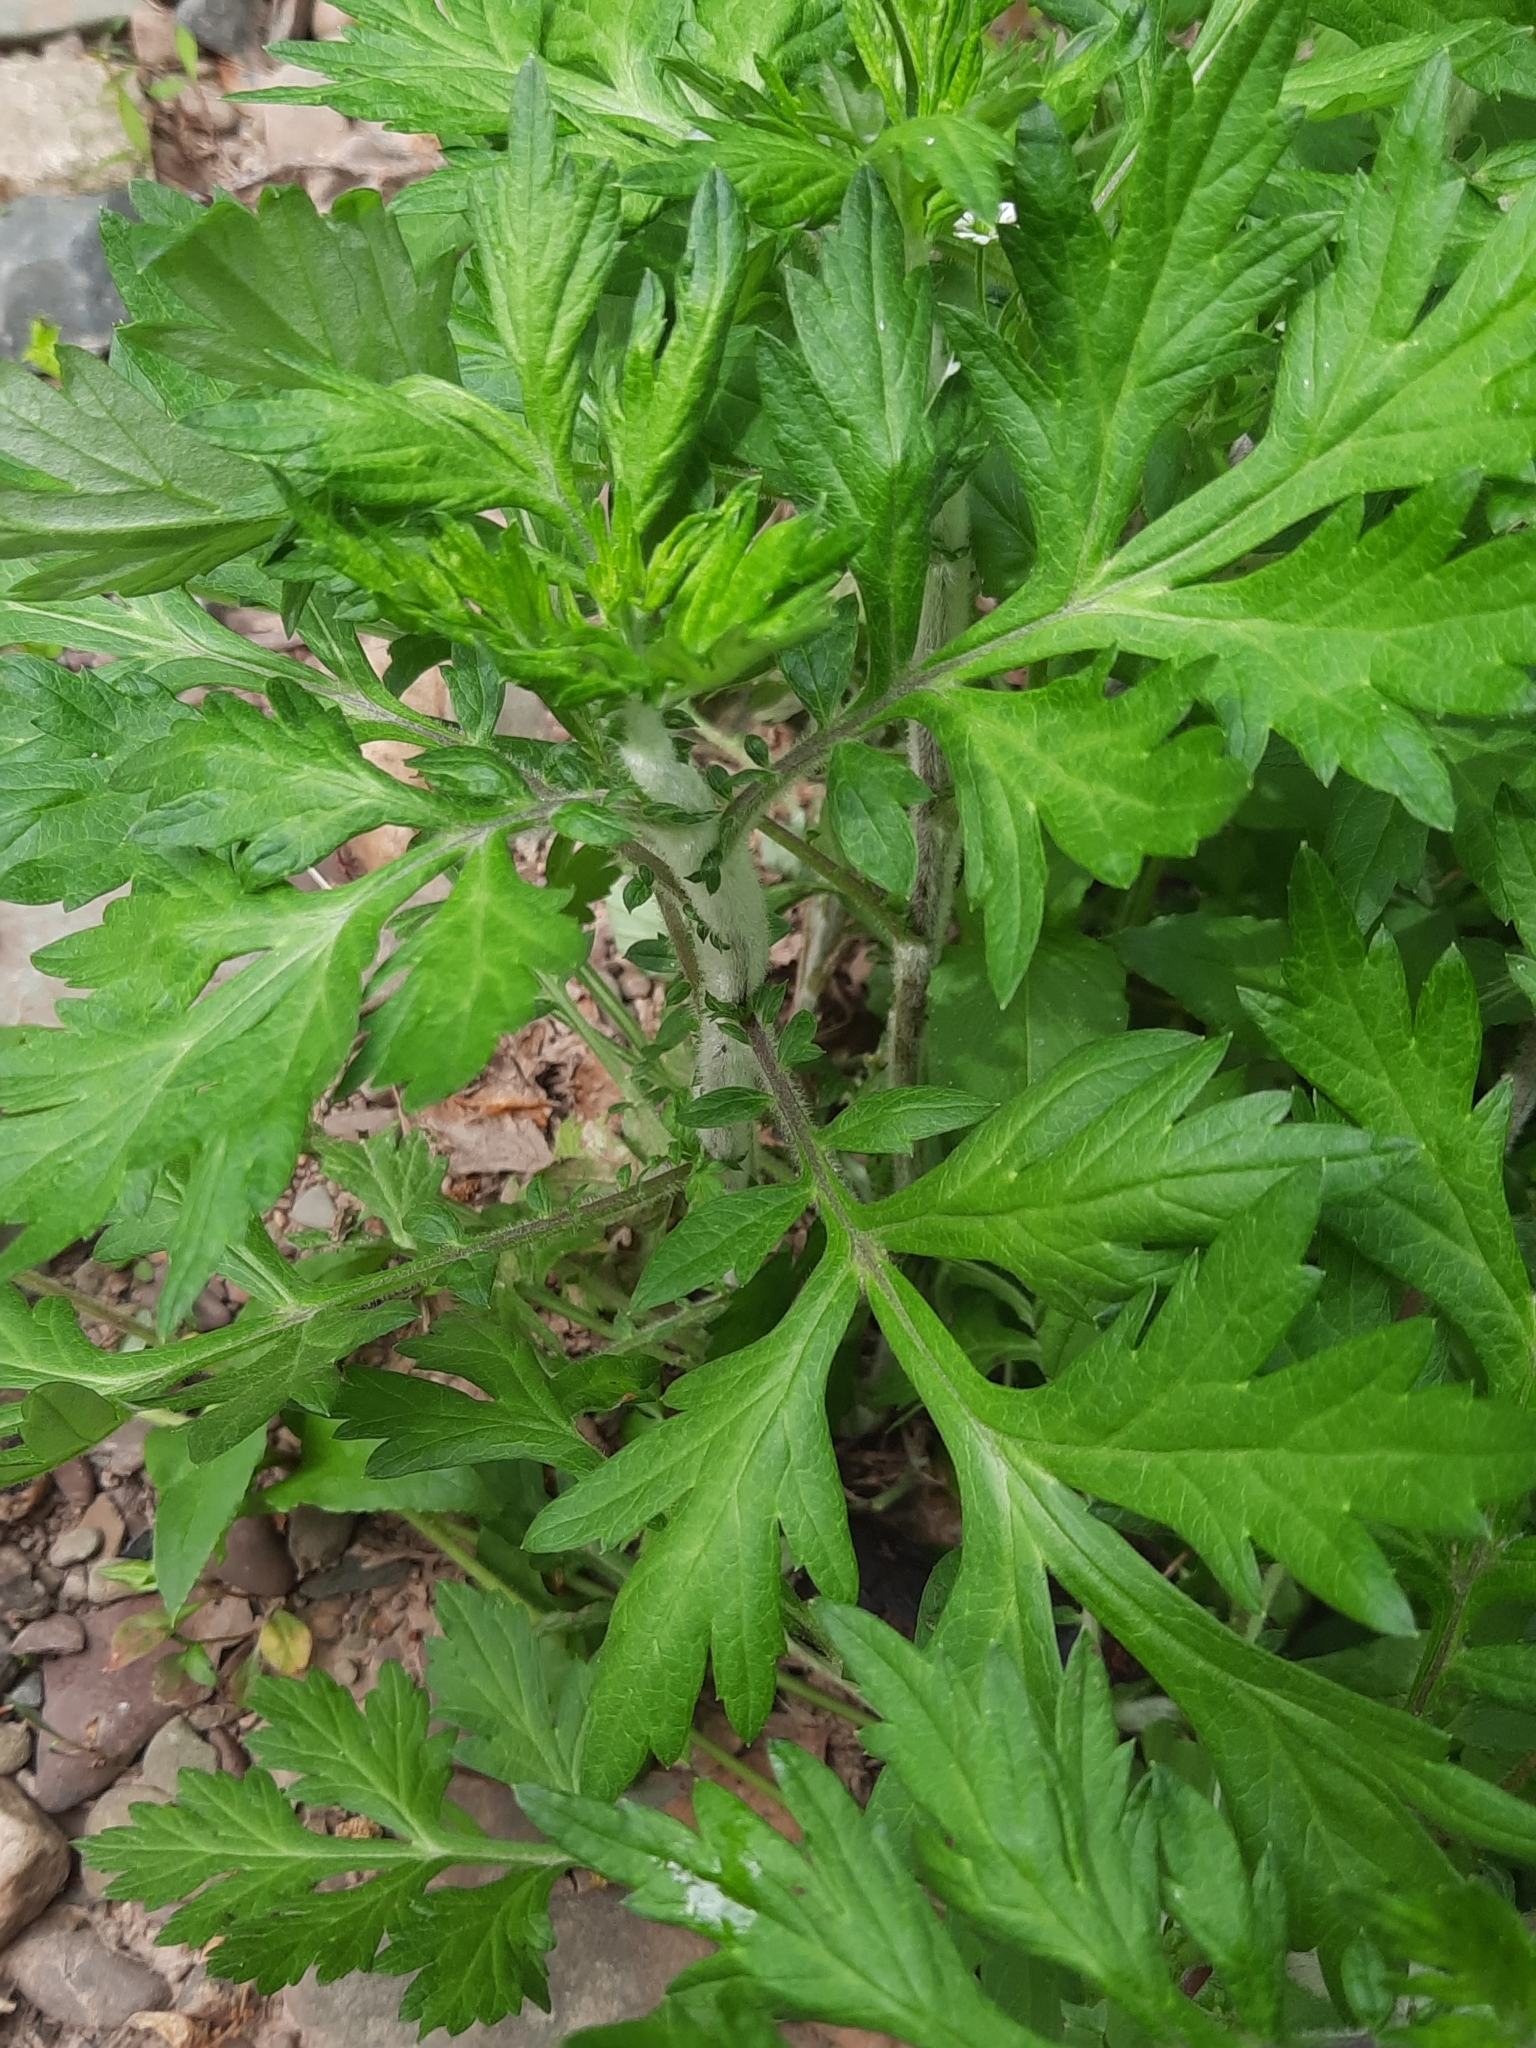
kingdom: Plantae
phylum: Tracheophyta
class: Magnoliopsida
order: Asterales
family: Asteraceae
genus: Artemisia
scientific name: Artemisia vulgaris
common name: Mugwort
